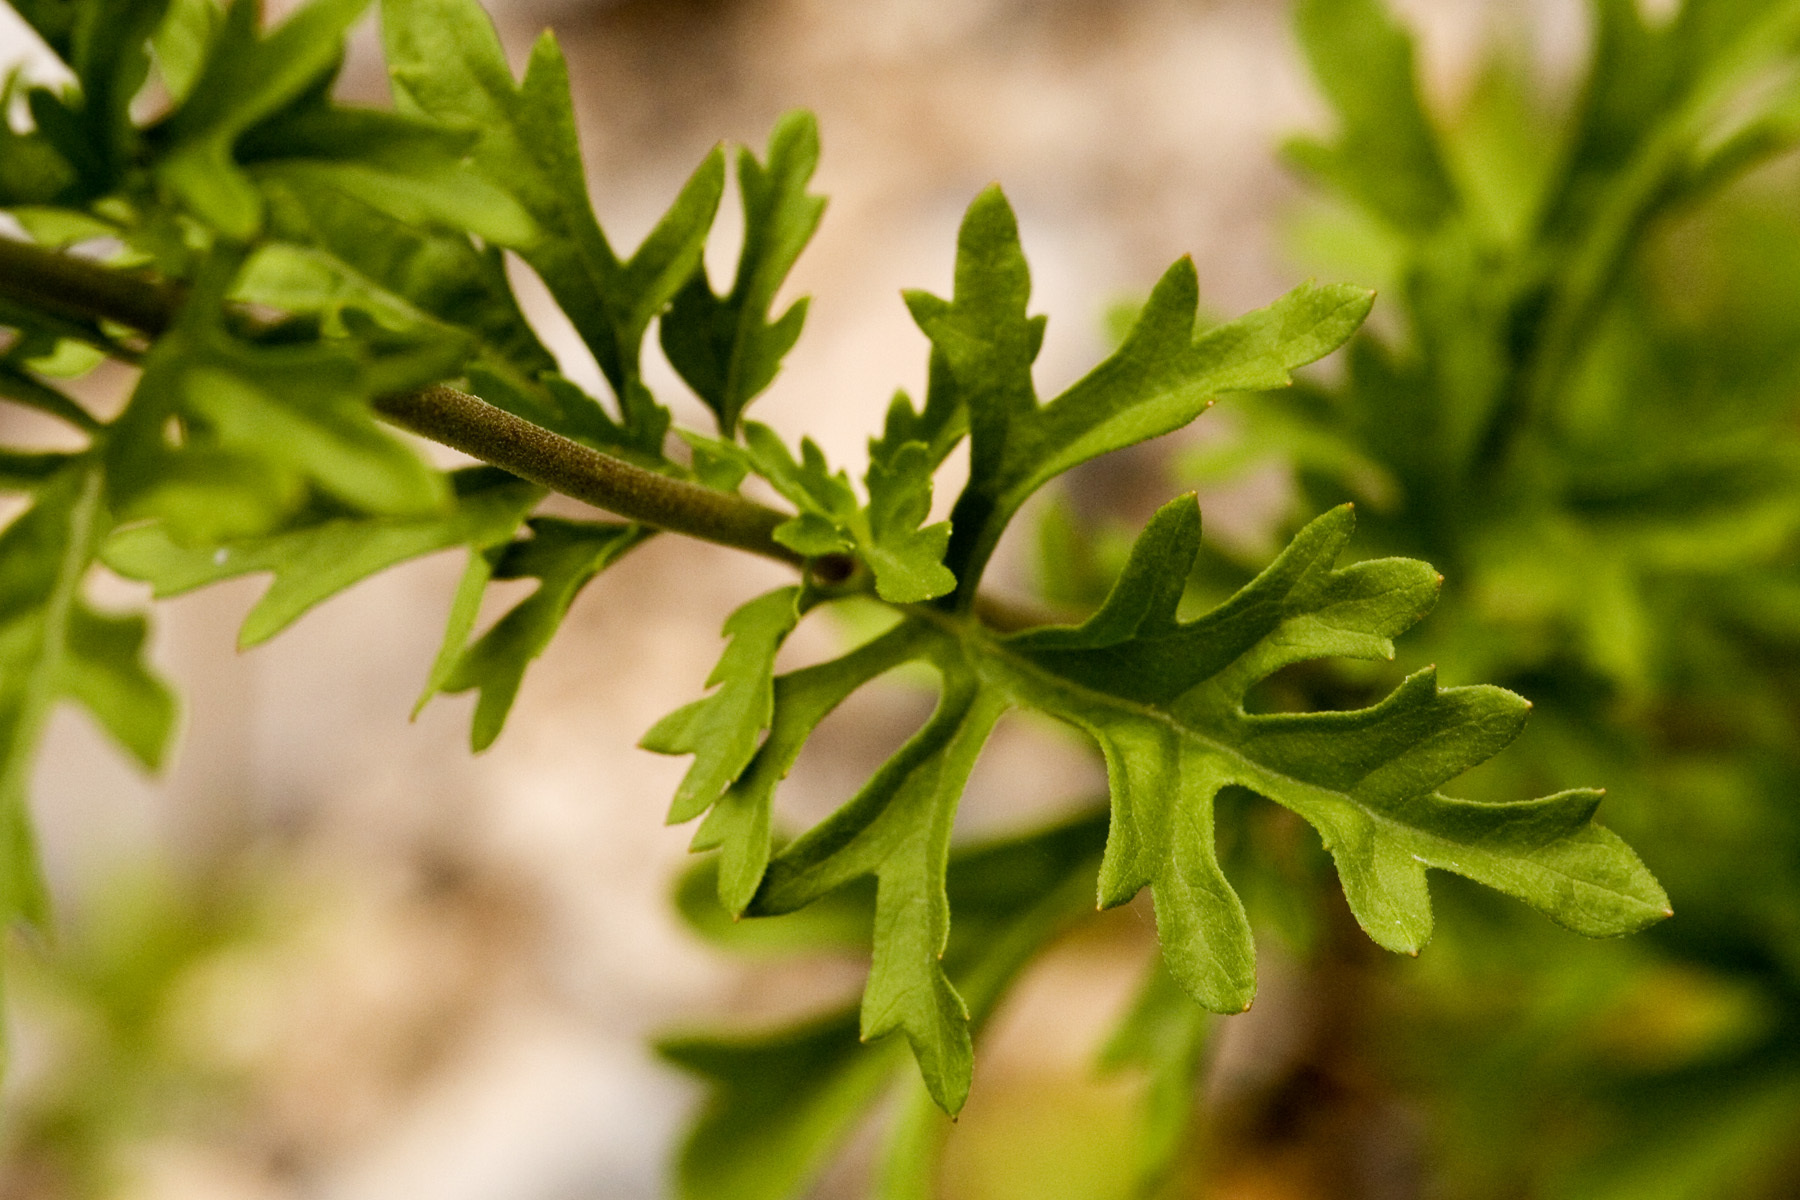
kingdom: Plantae
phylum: Tracheophyta
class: Magnoliopsida
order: Asterales
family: Asteraceae
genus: Conoclinium
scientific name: Conoclinium dissectum
